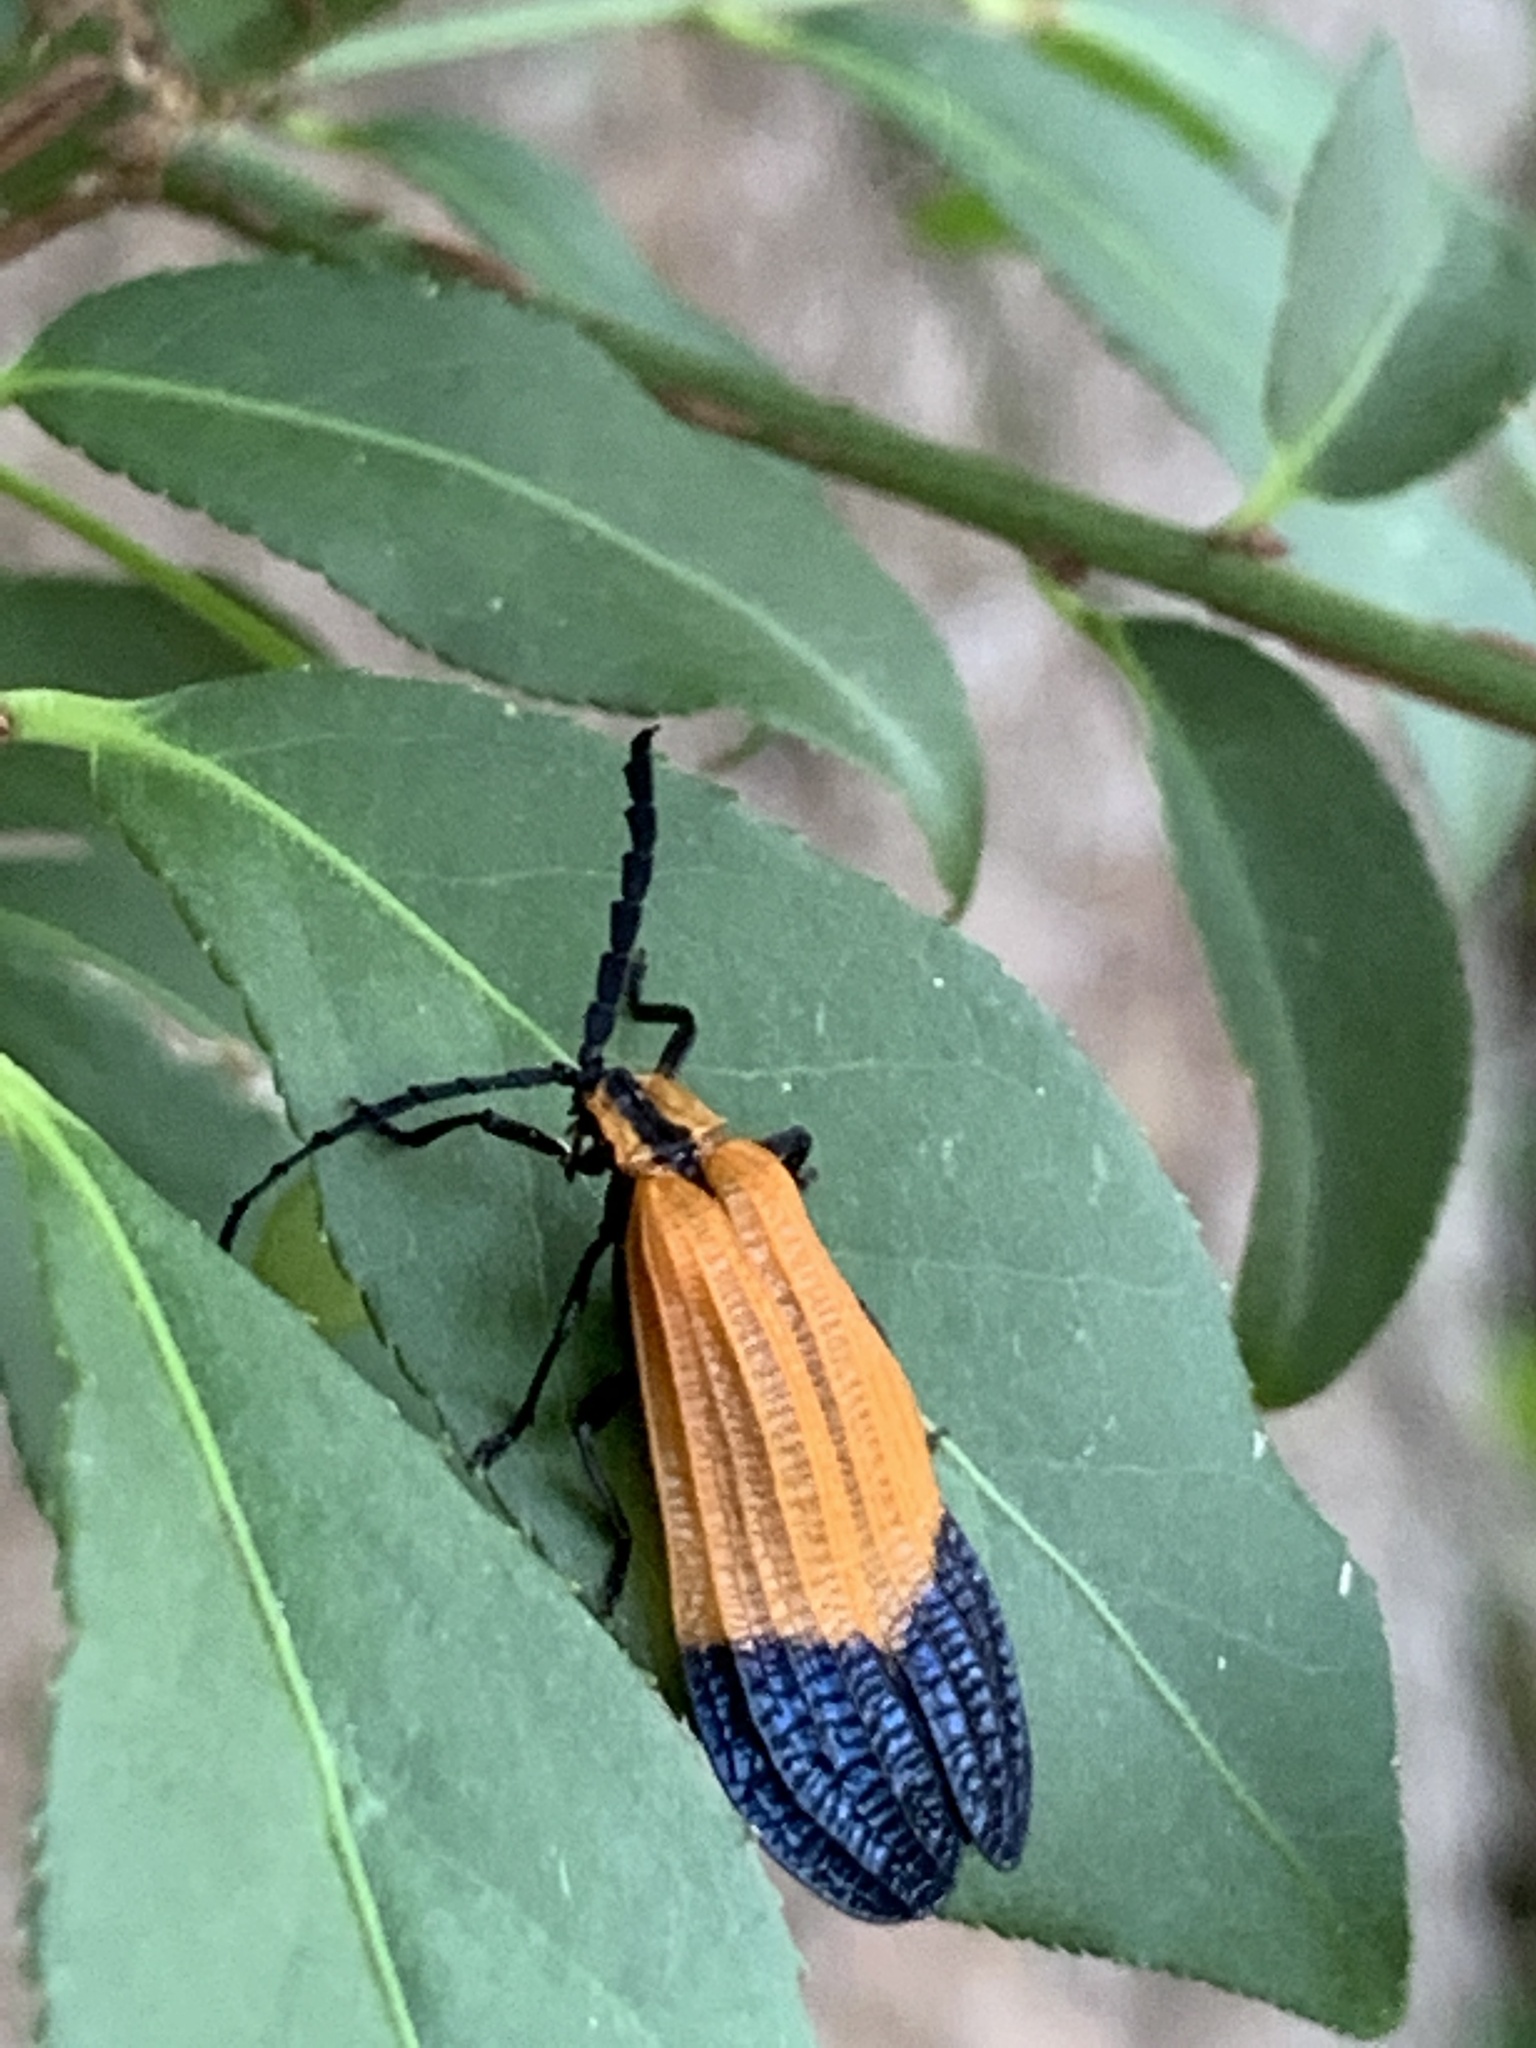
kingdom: Animalia
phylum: Arthropoda
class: Insecta
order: Coleoptera
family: Lycidae
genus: Calopteron
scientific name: Calopteron terminale
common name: End band net-winged beetle
